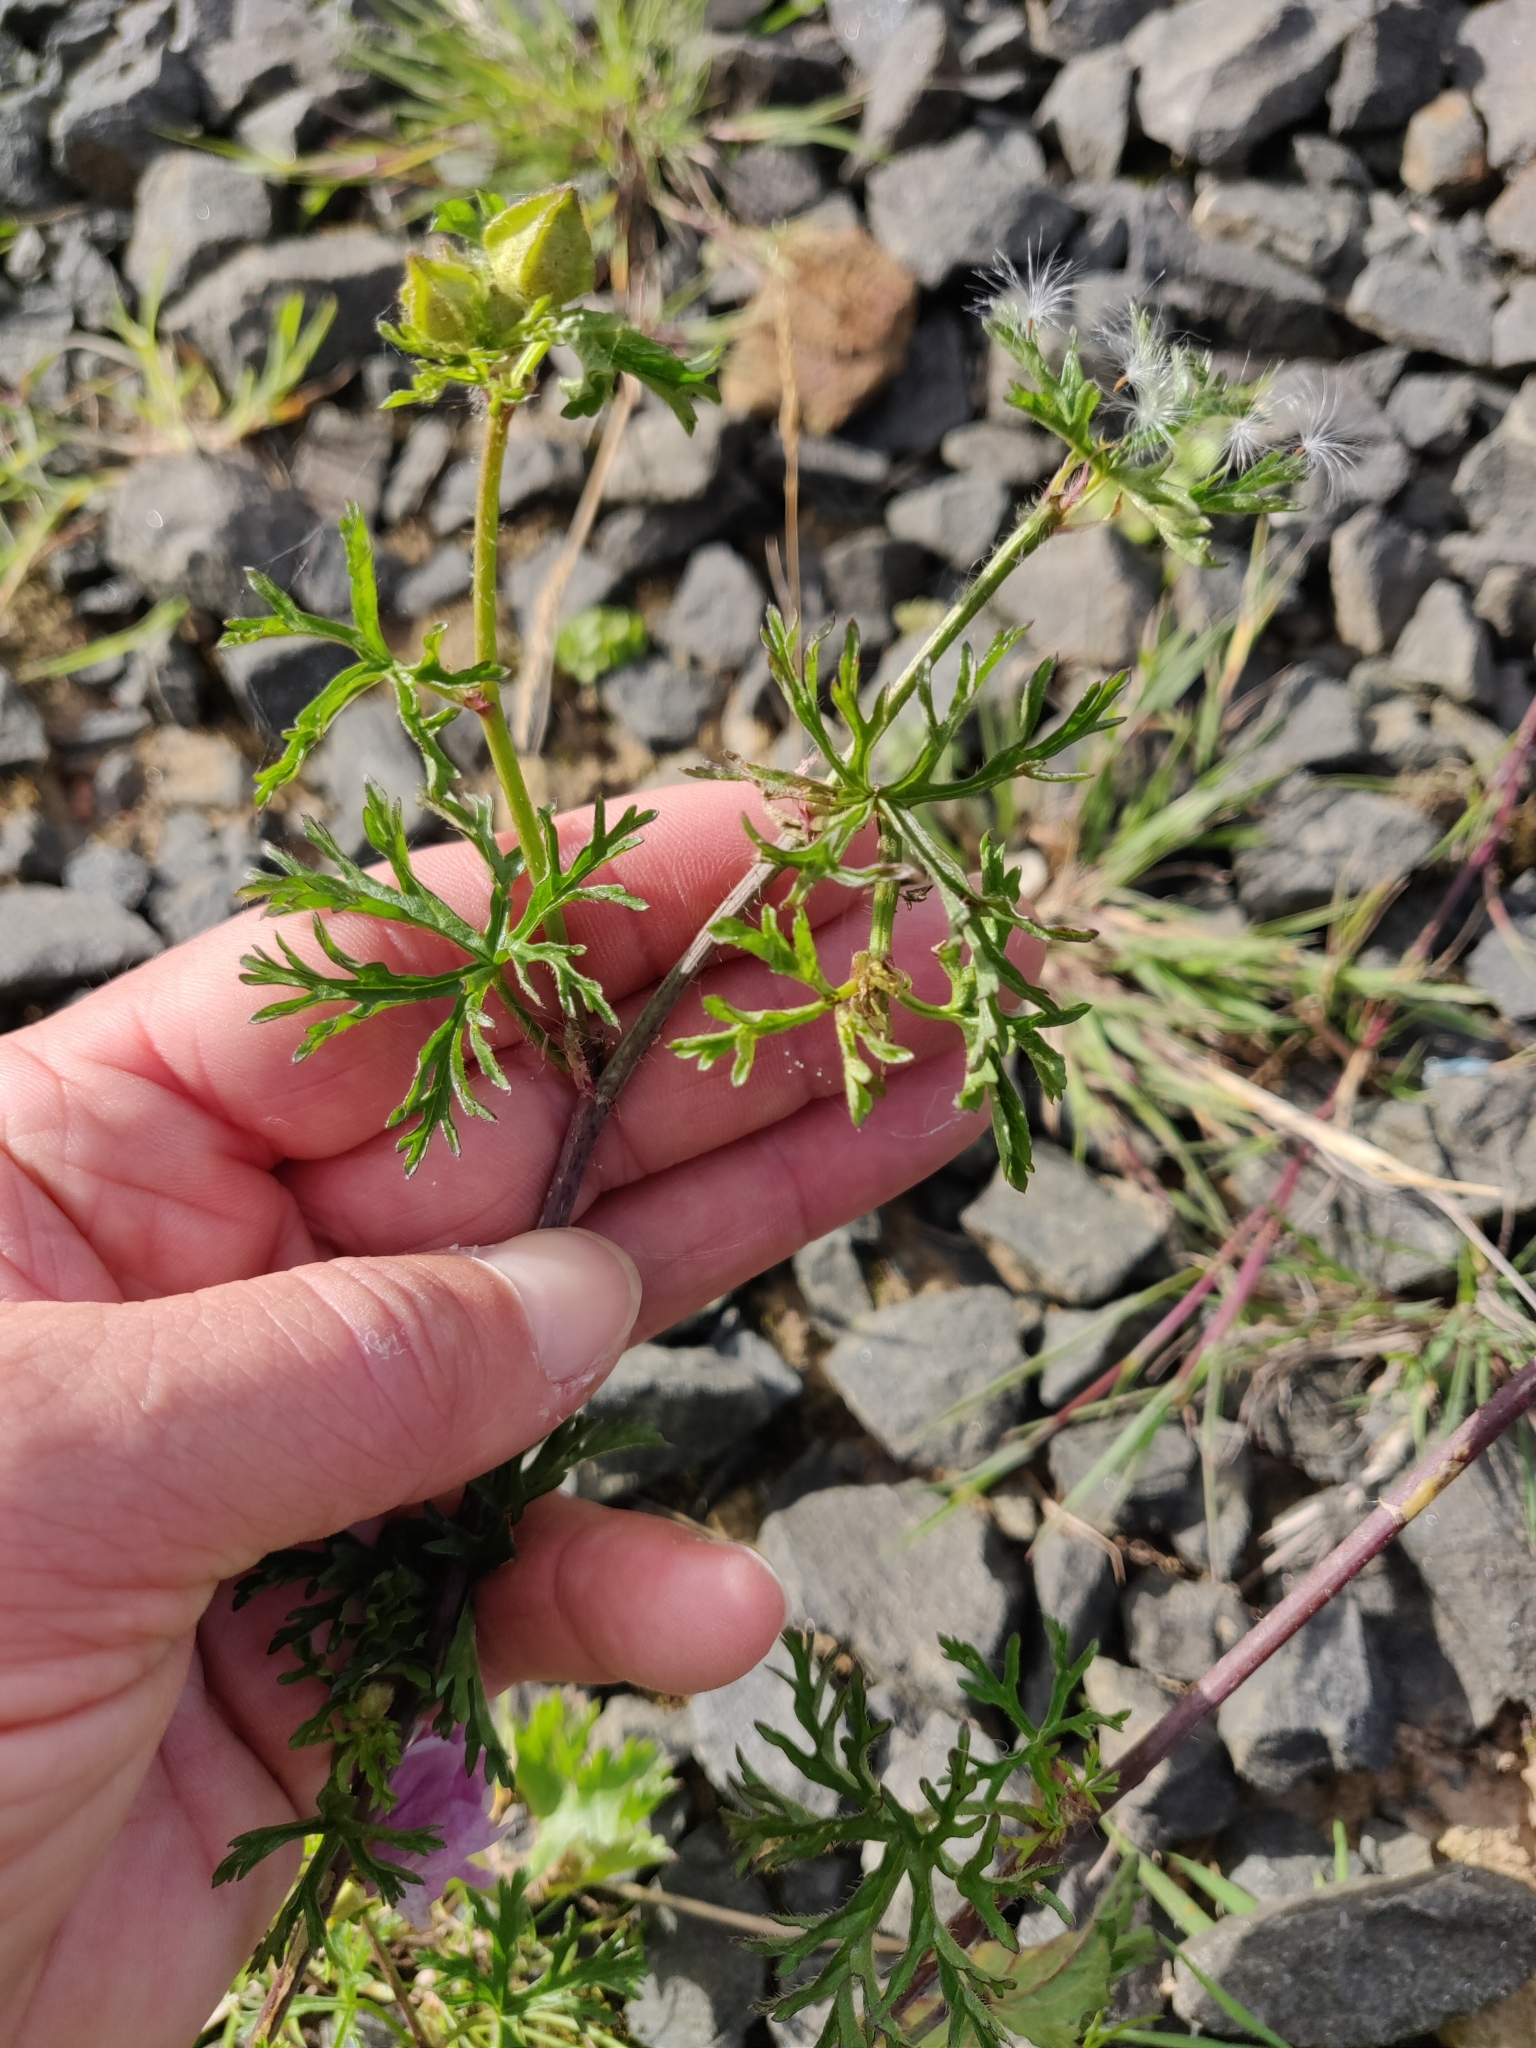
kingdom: Plantae
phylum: Tracheophyta
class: Magnoliopsida
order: Malvales
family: Malvaceae
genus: Malva
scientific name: Malva moschata
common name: Musk mallow
